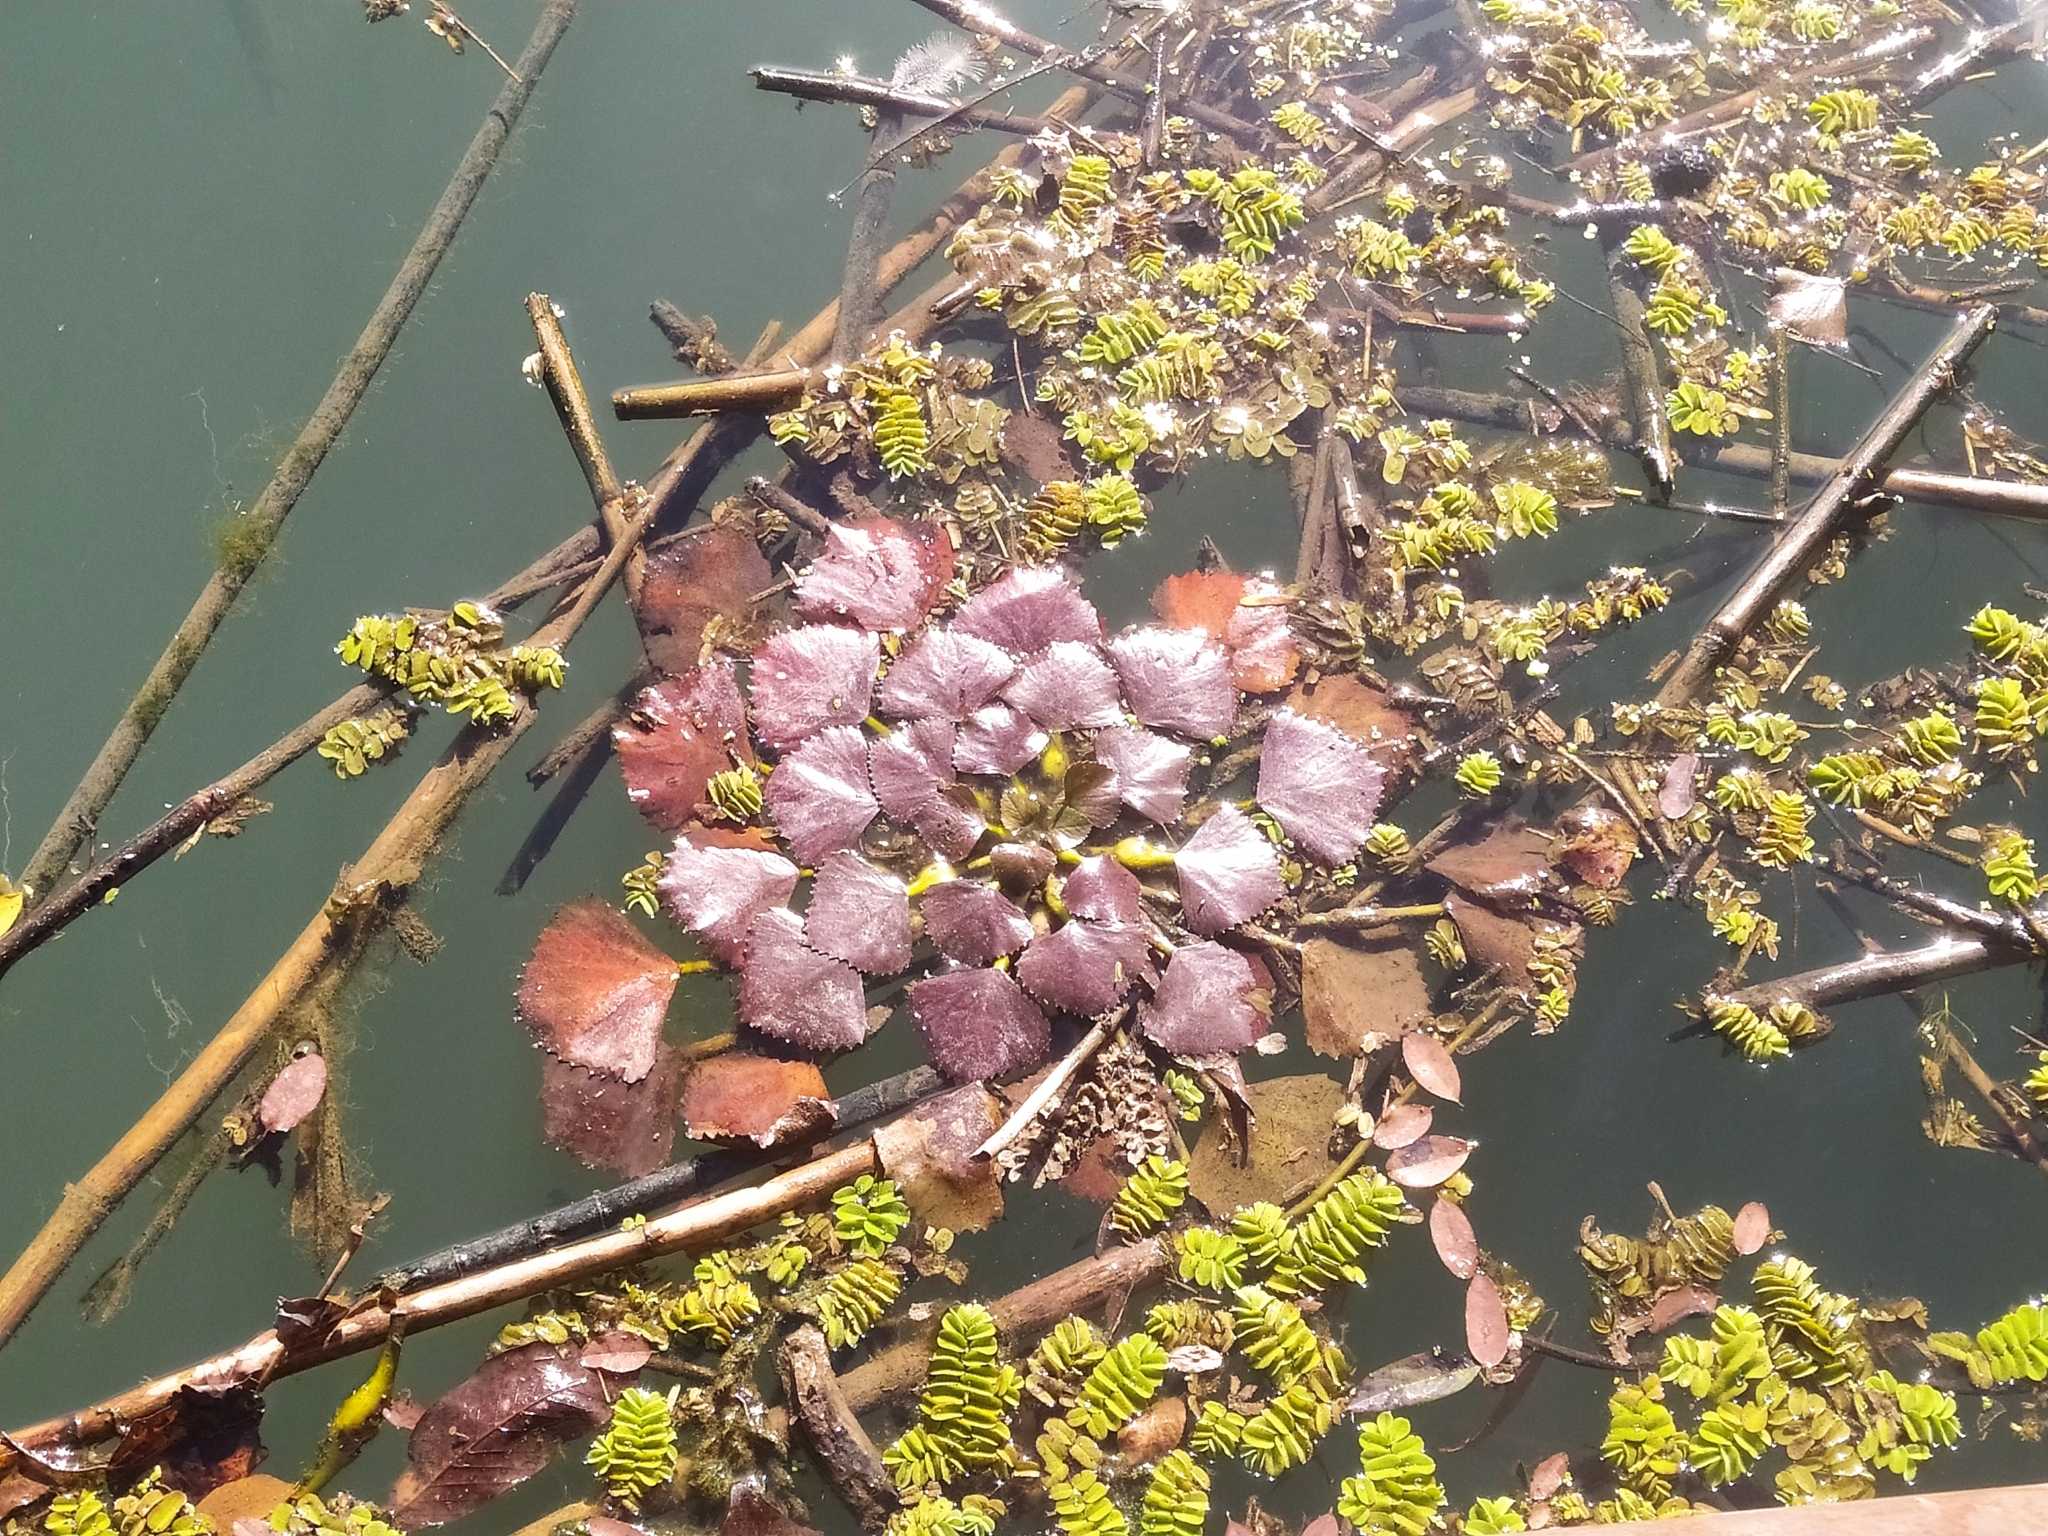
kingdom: Plantae
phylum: Tracheophyta
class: Magnoliopsida
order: Myrtales
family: Lythraceae
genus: Trapa
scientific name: Trapa natans
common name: Water chestnut
